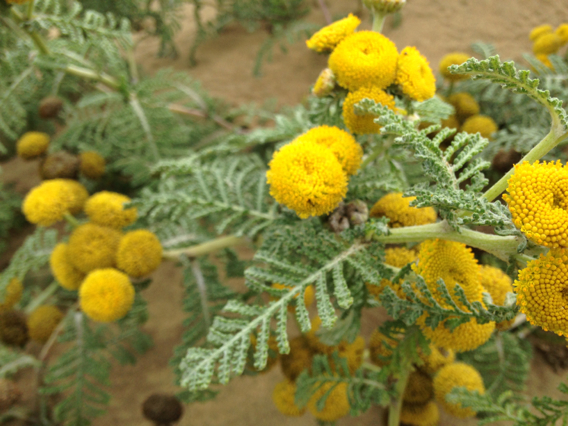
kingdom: Plantae
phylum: Tracheophyta
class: Magnoliopsida
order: Asterales
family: Asteraceae
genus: Tanacetum
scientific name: Tanacetum bipinnatum
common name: Dwarf tansy
